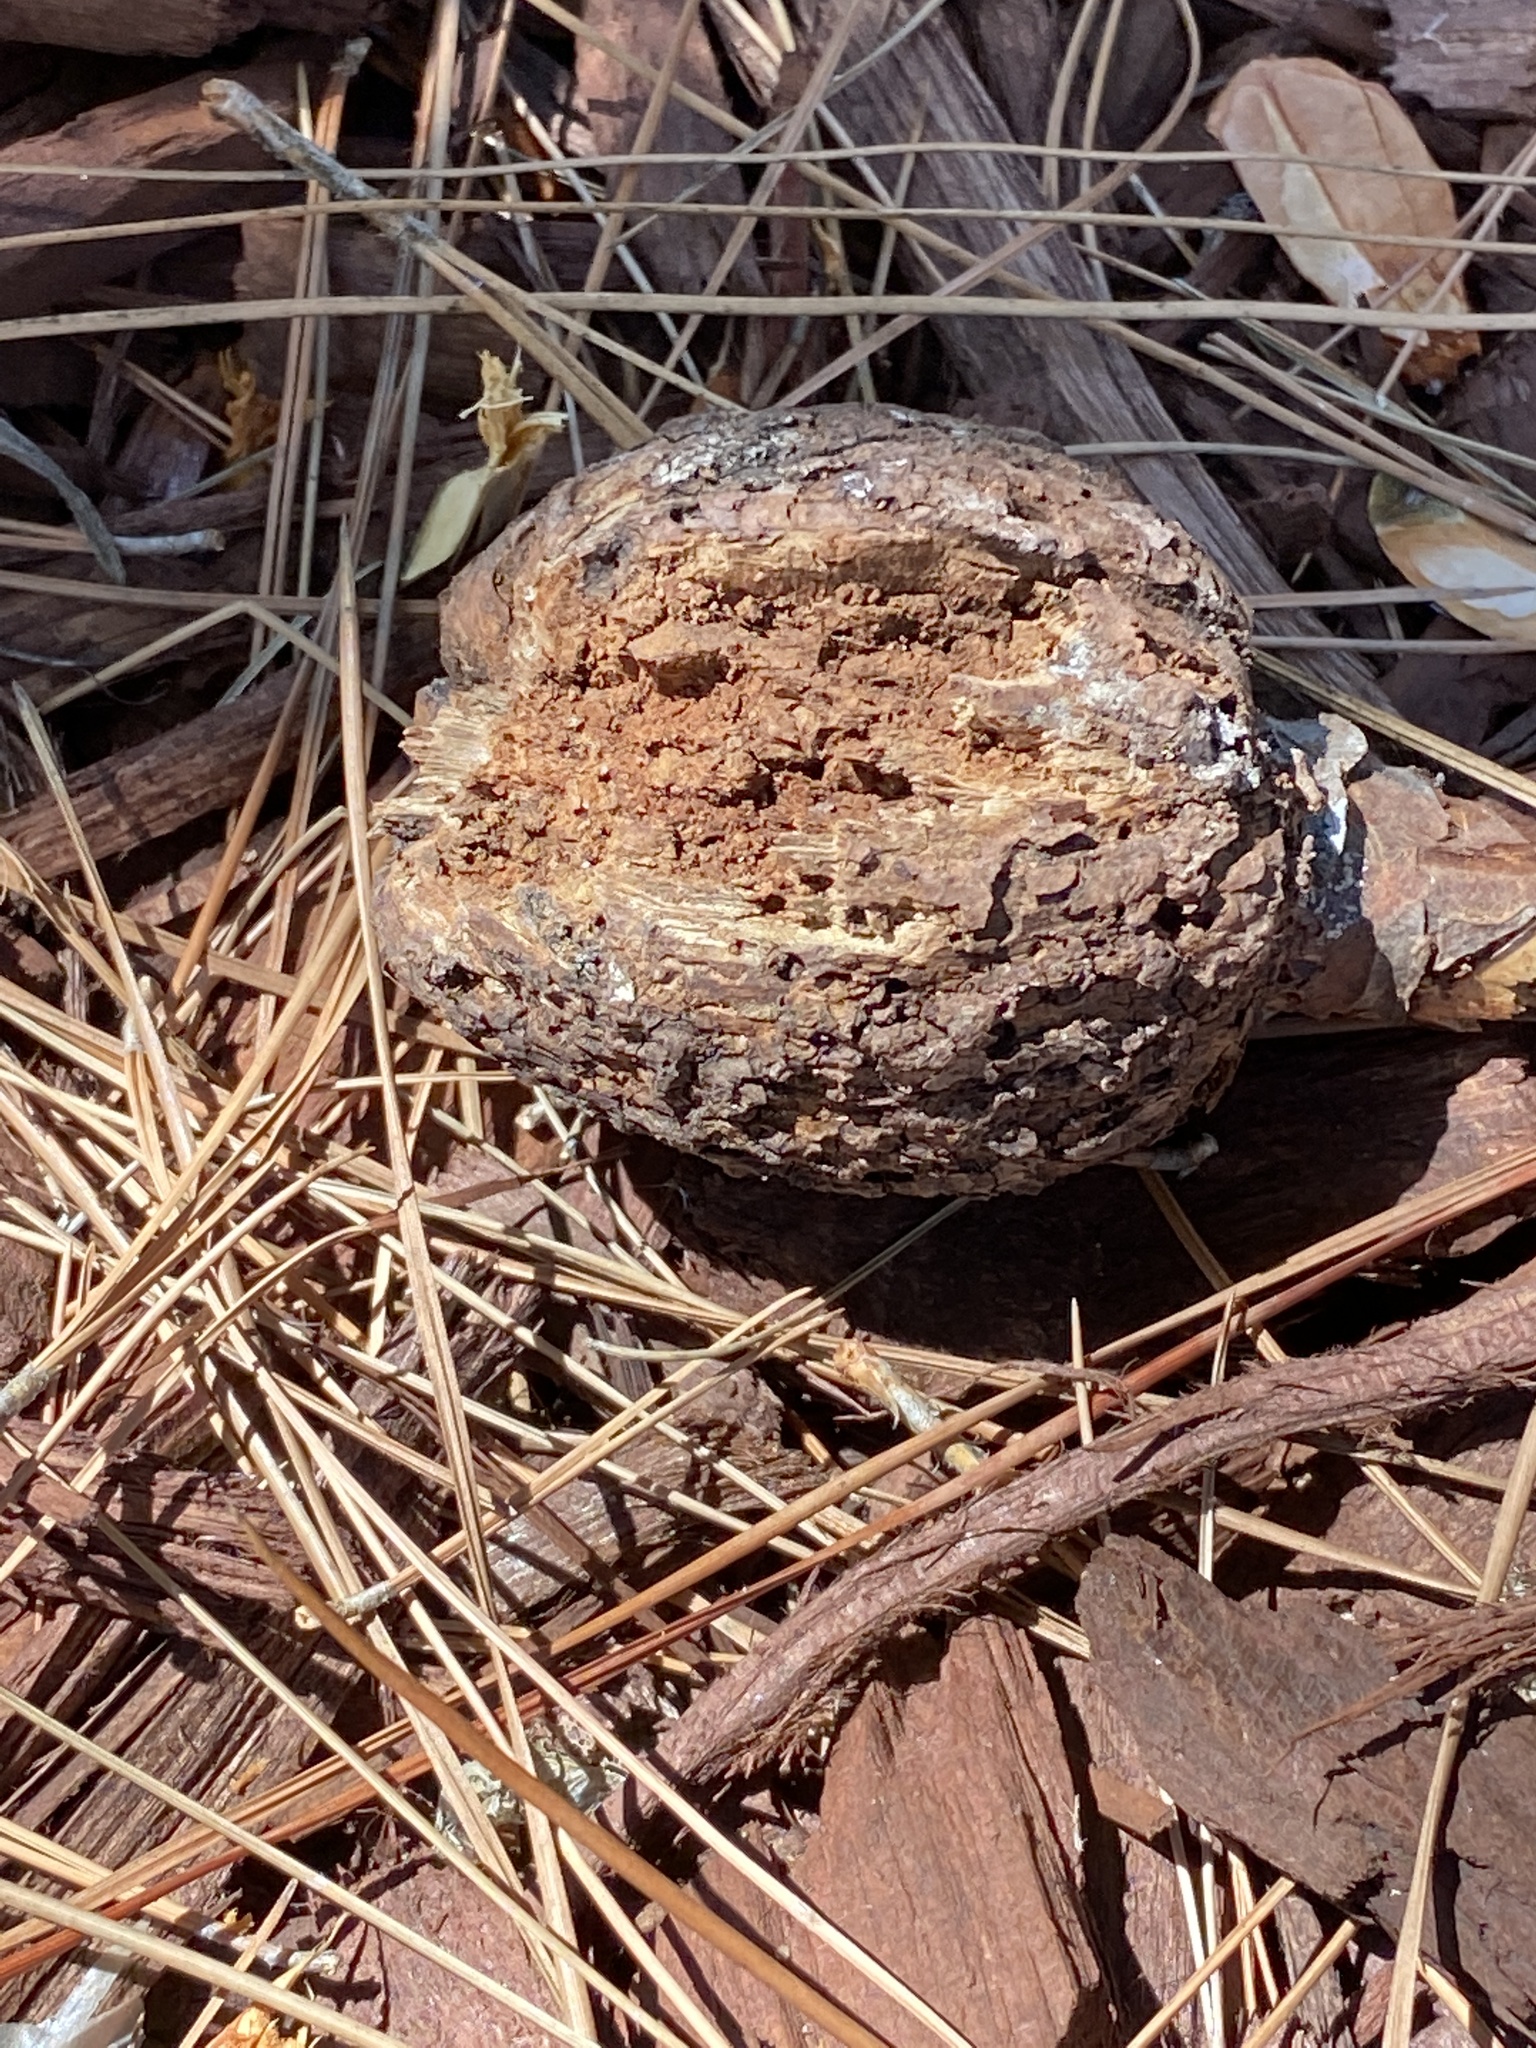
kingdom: Fungi
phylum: Basidiomycota
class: Agaricomycetes
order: Boletales
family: Sclerodermataceae
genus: Pisolithus
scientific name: Pisolithus tinctorius
